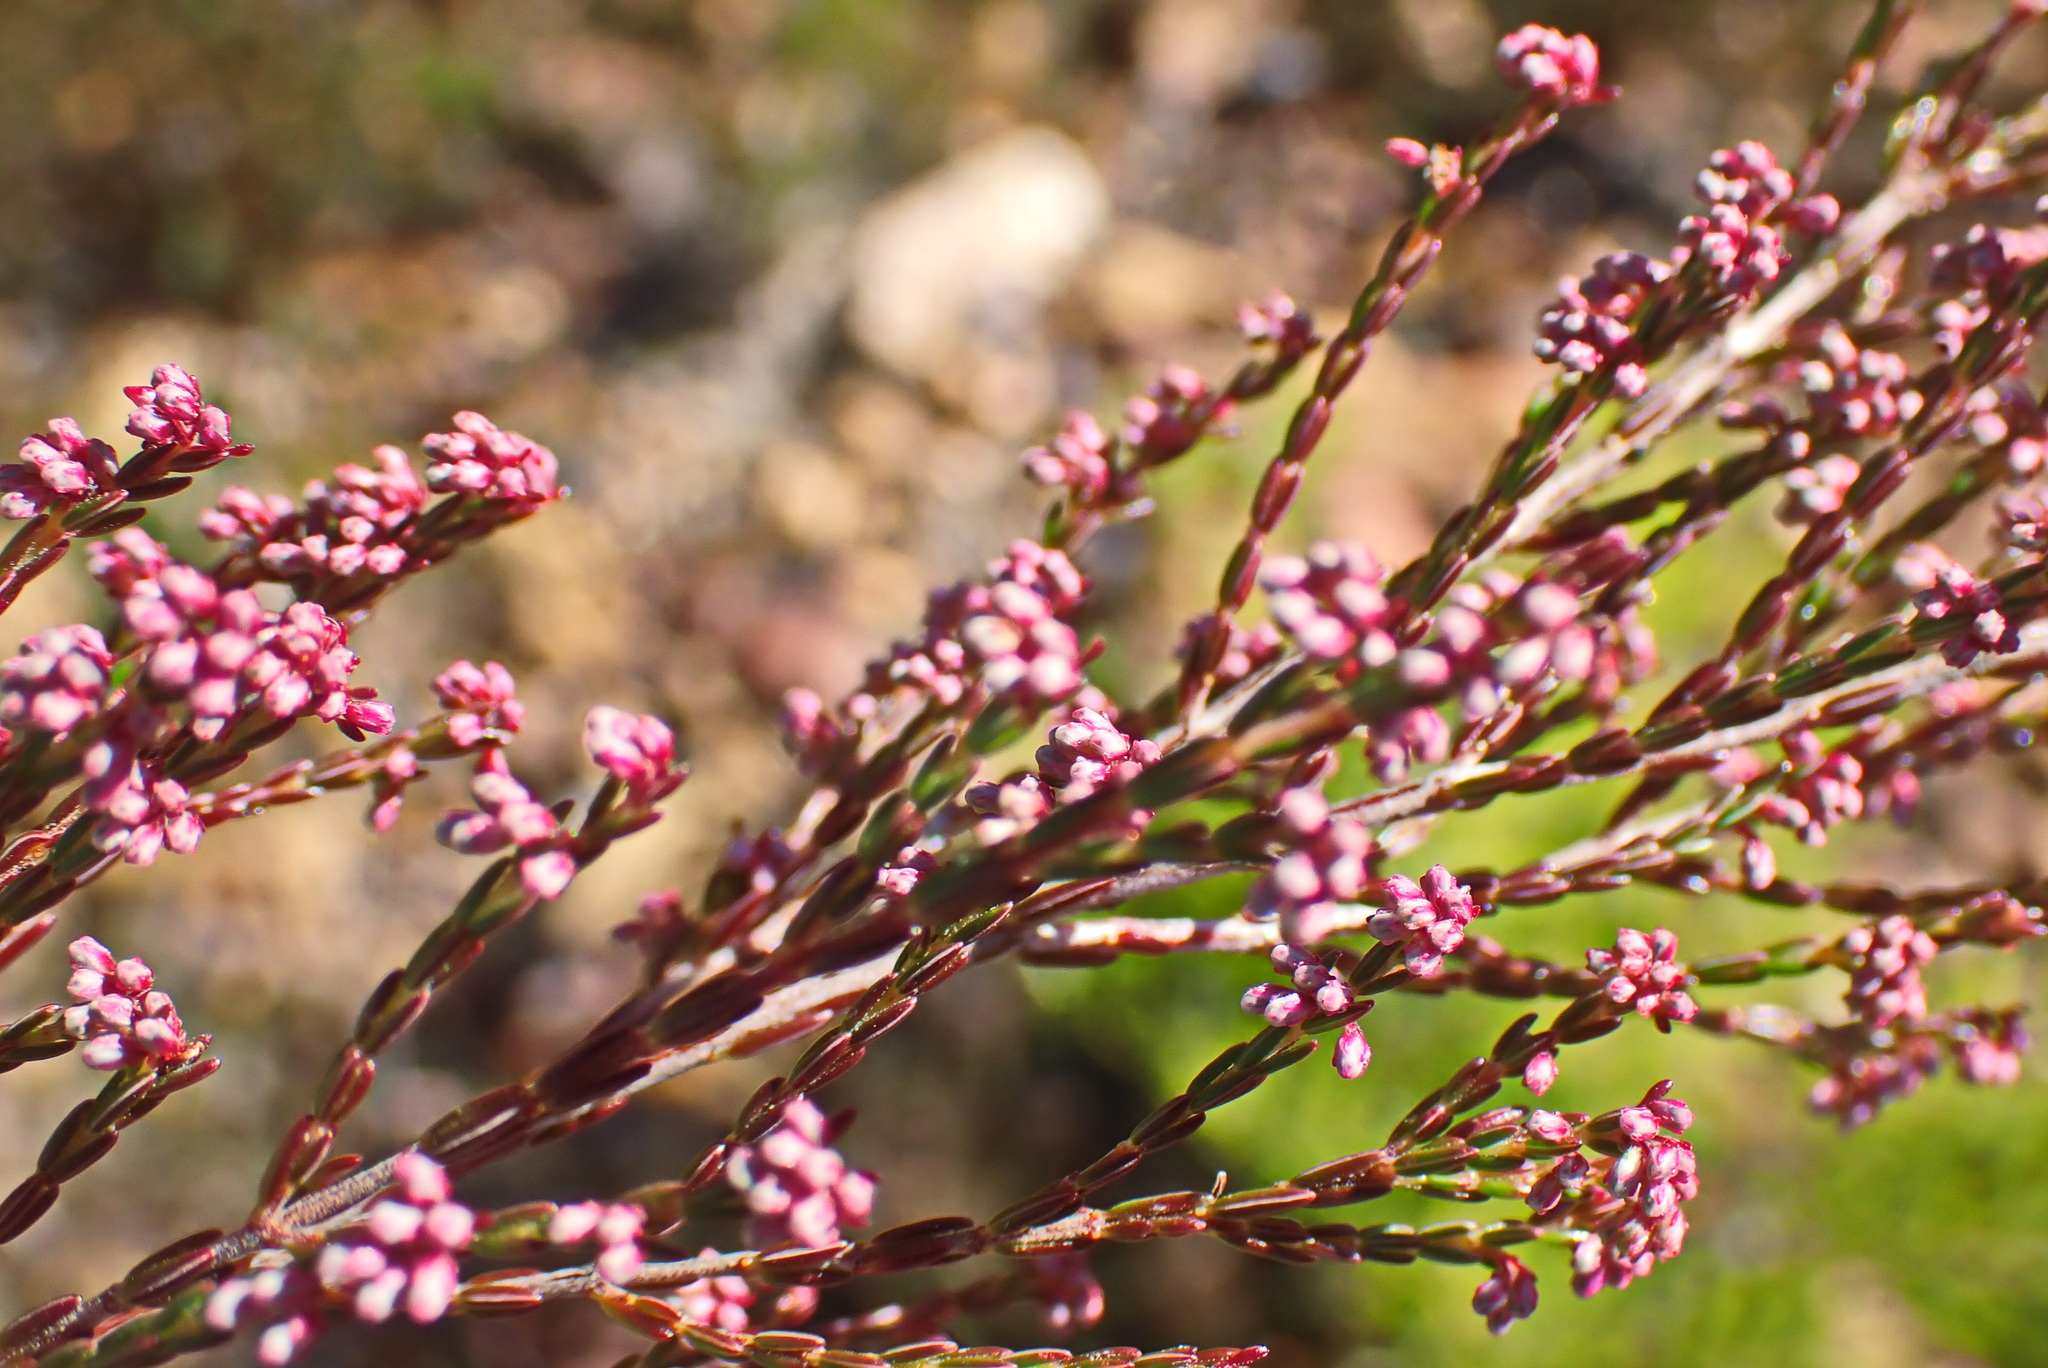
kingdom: Plantae
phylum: Tracheophyta
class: Magnoliopsida
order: Ericales
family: Ericaceae
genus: Erica
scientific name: Erica rosacea
